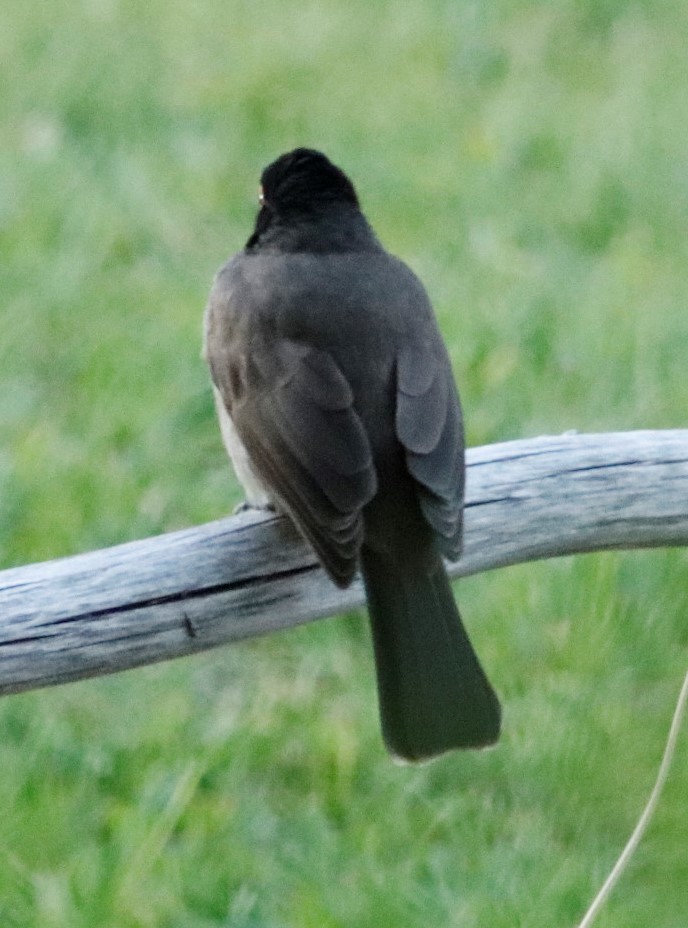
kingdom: Animalia
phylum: Chordata
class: Aves
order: Passeriformes
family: Pycnonotidae
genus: Pycnonotus
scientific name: Pycnonotus nigricans
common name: African red-eyed bulbul
